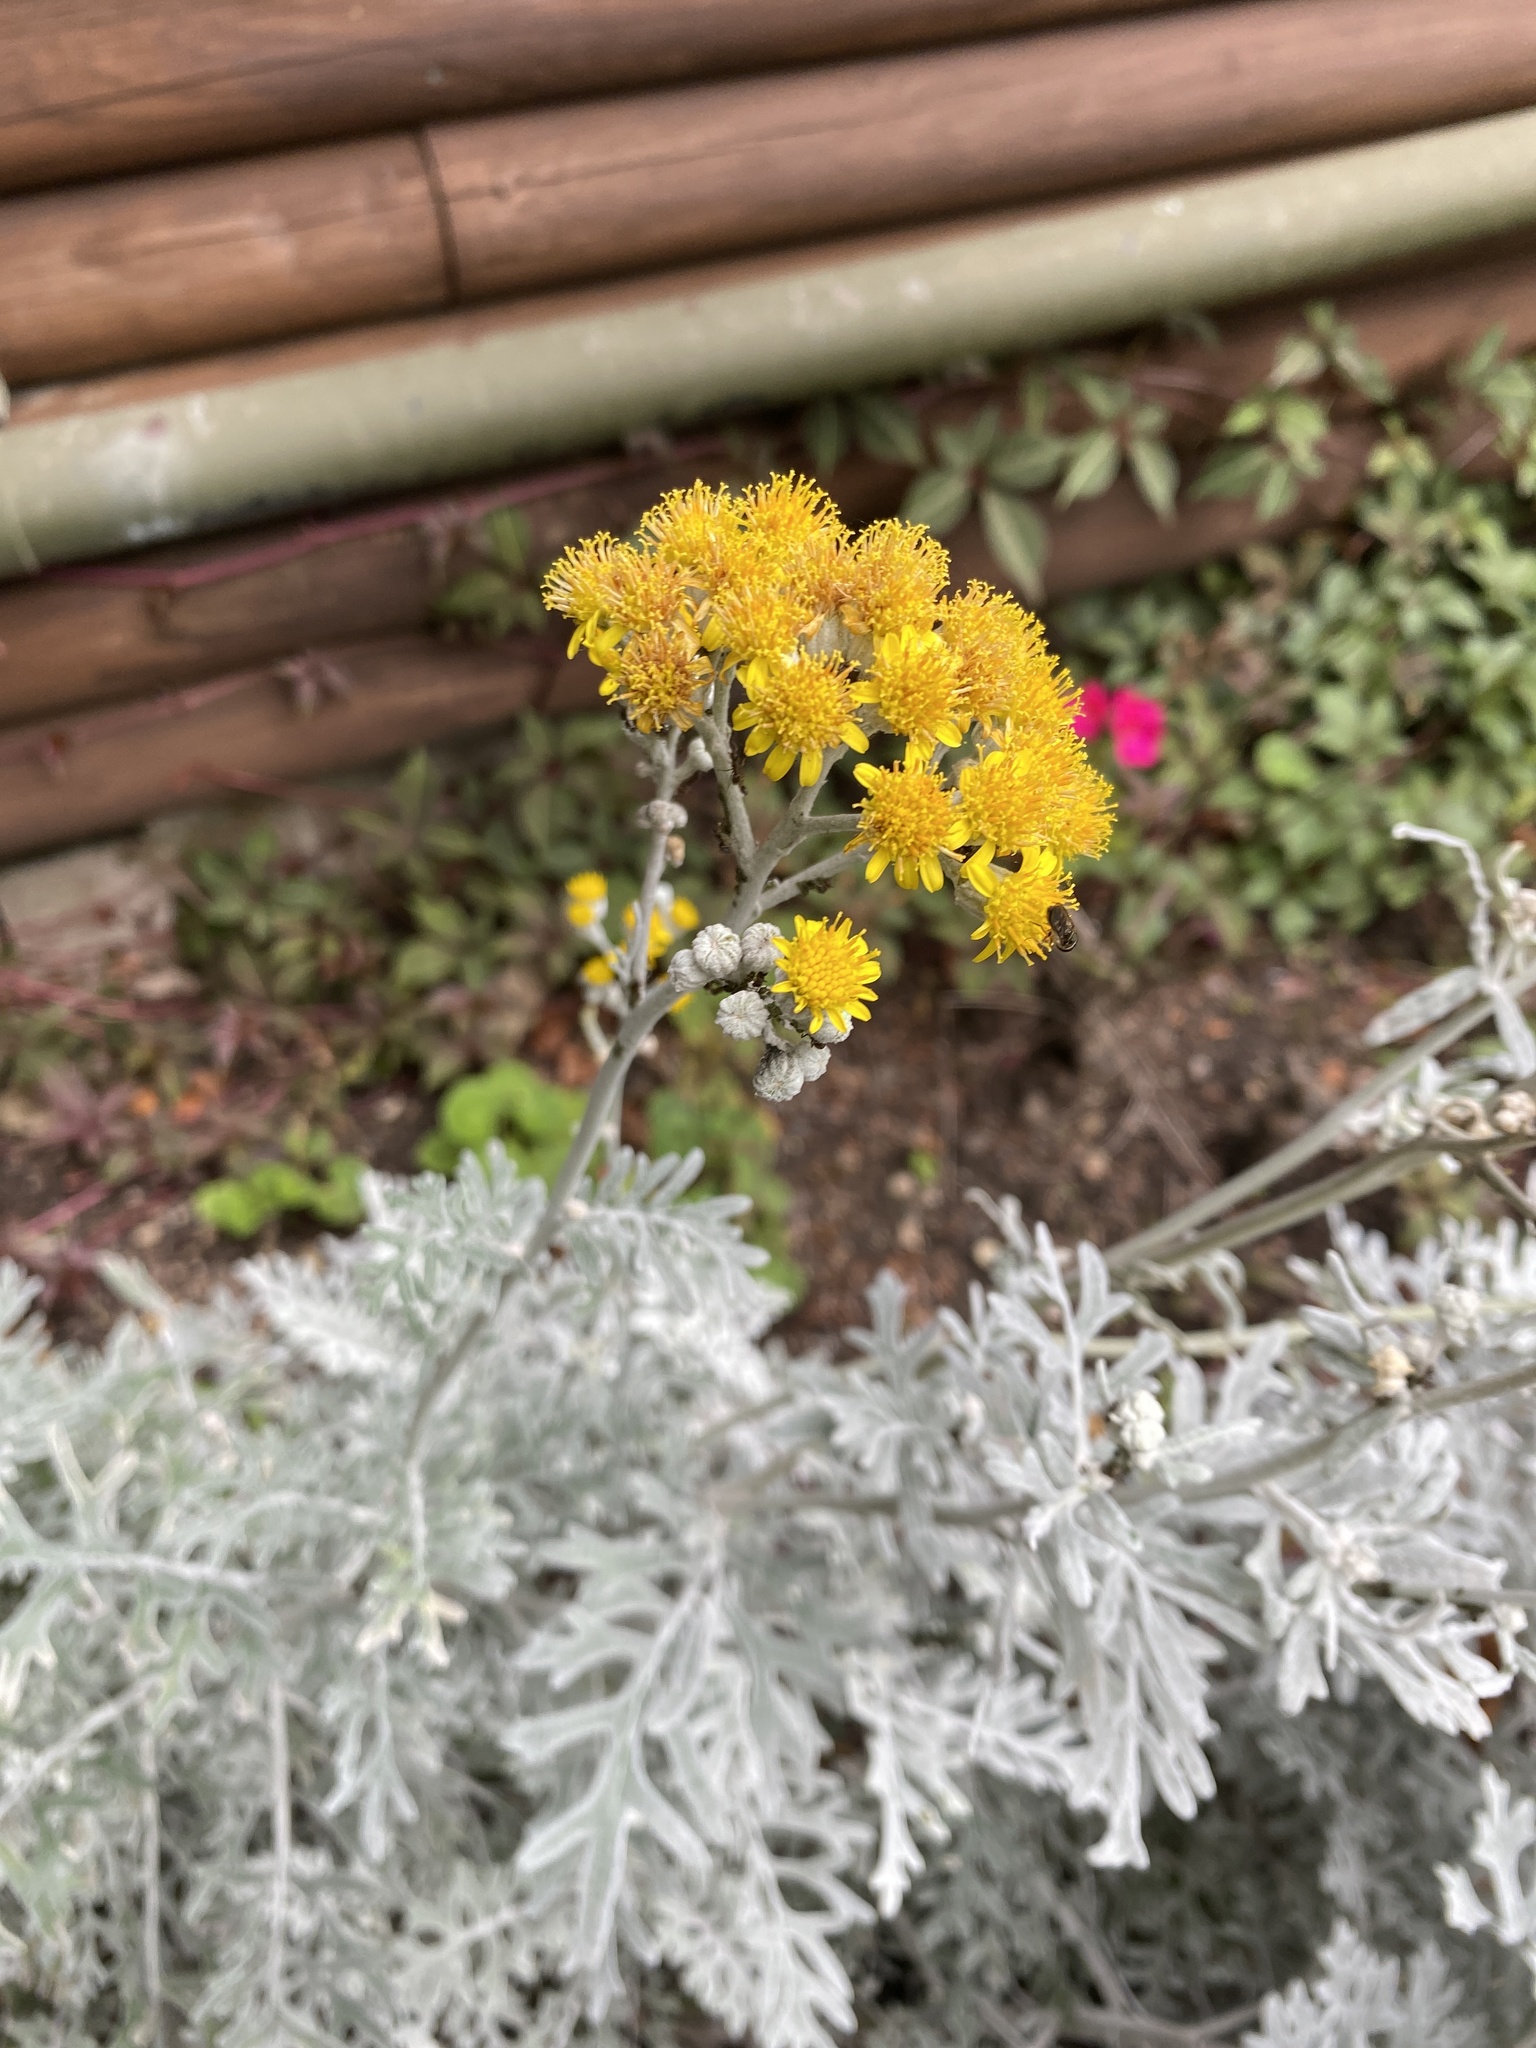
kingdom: Plantae
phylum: Tracheophyta
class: Magnoliopsida
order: Asterales
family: Asteraceae
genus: Jacobaea
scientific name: Jacobaea maritima
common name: Silver ragwort
